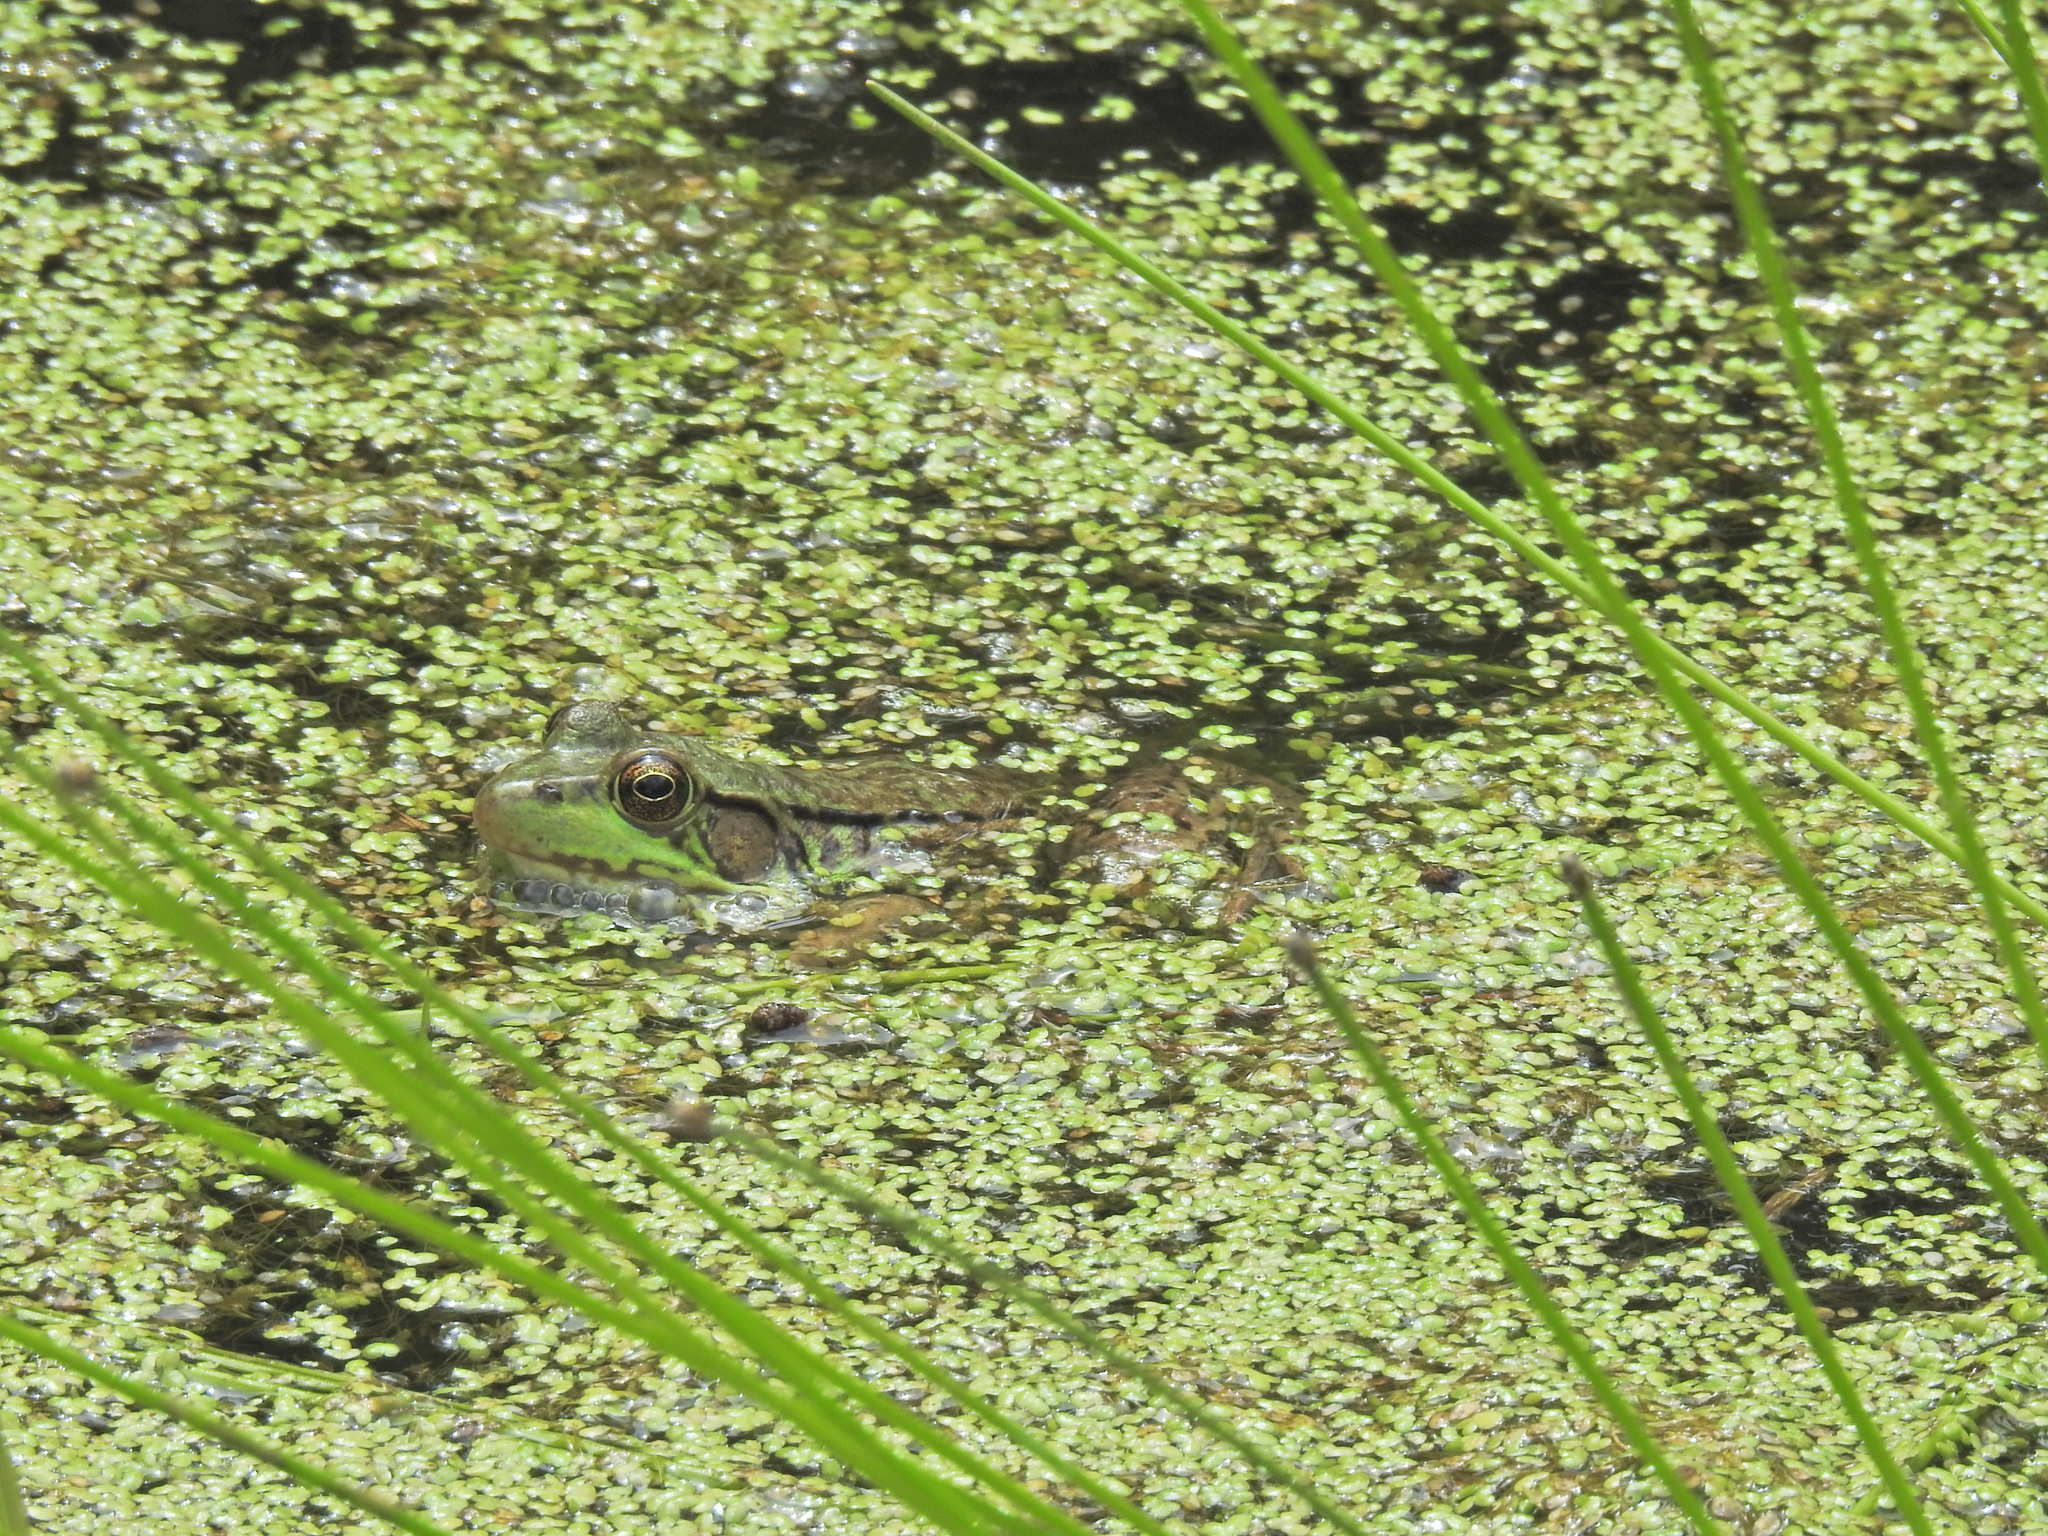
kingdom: Animalia
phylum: Chordata
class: Amphibia
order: Anura
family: Ranidae
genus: Lithobates
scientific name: Lithobates clamitans
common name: Green frog
